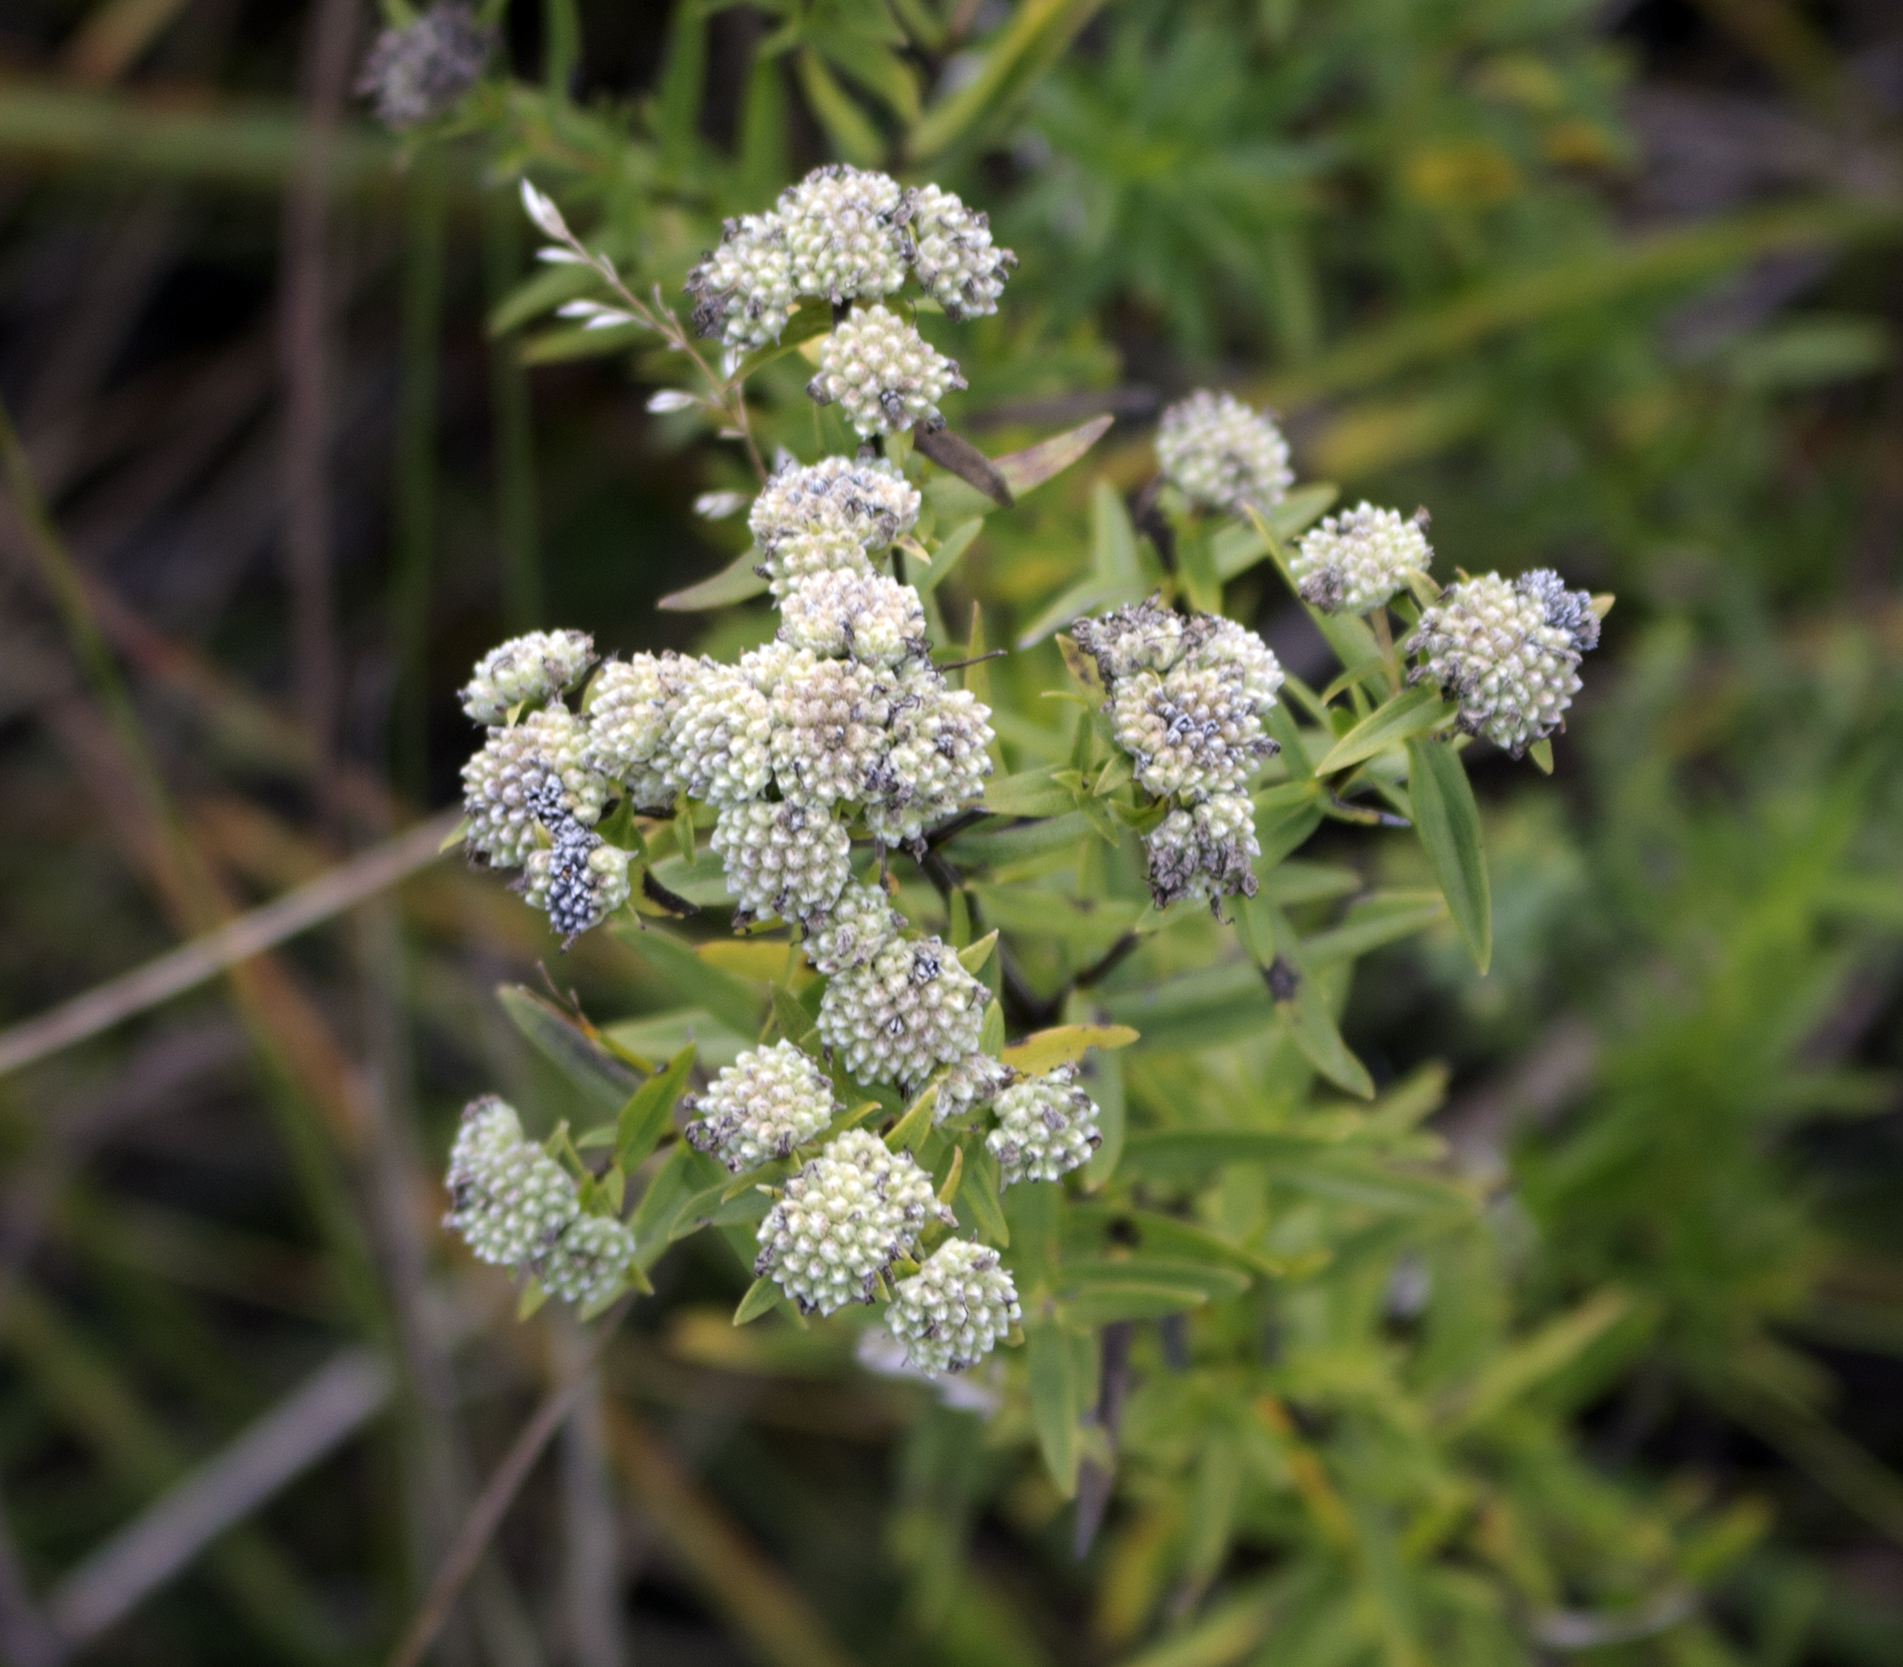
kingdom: Plantae
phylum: Tracheophyta
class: Magnoliopsida
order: Lamiales
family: Lamiaceae
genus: Pycnanthemum
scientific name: Pycnanthemum virginianum
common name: Virginia mountain-mint
